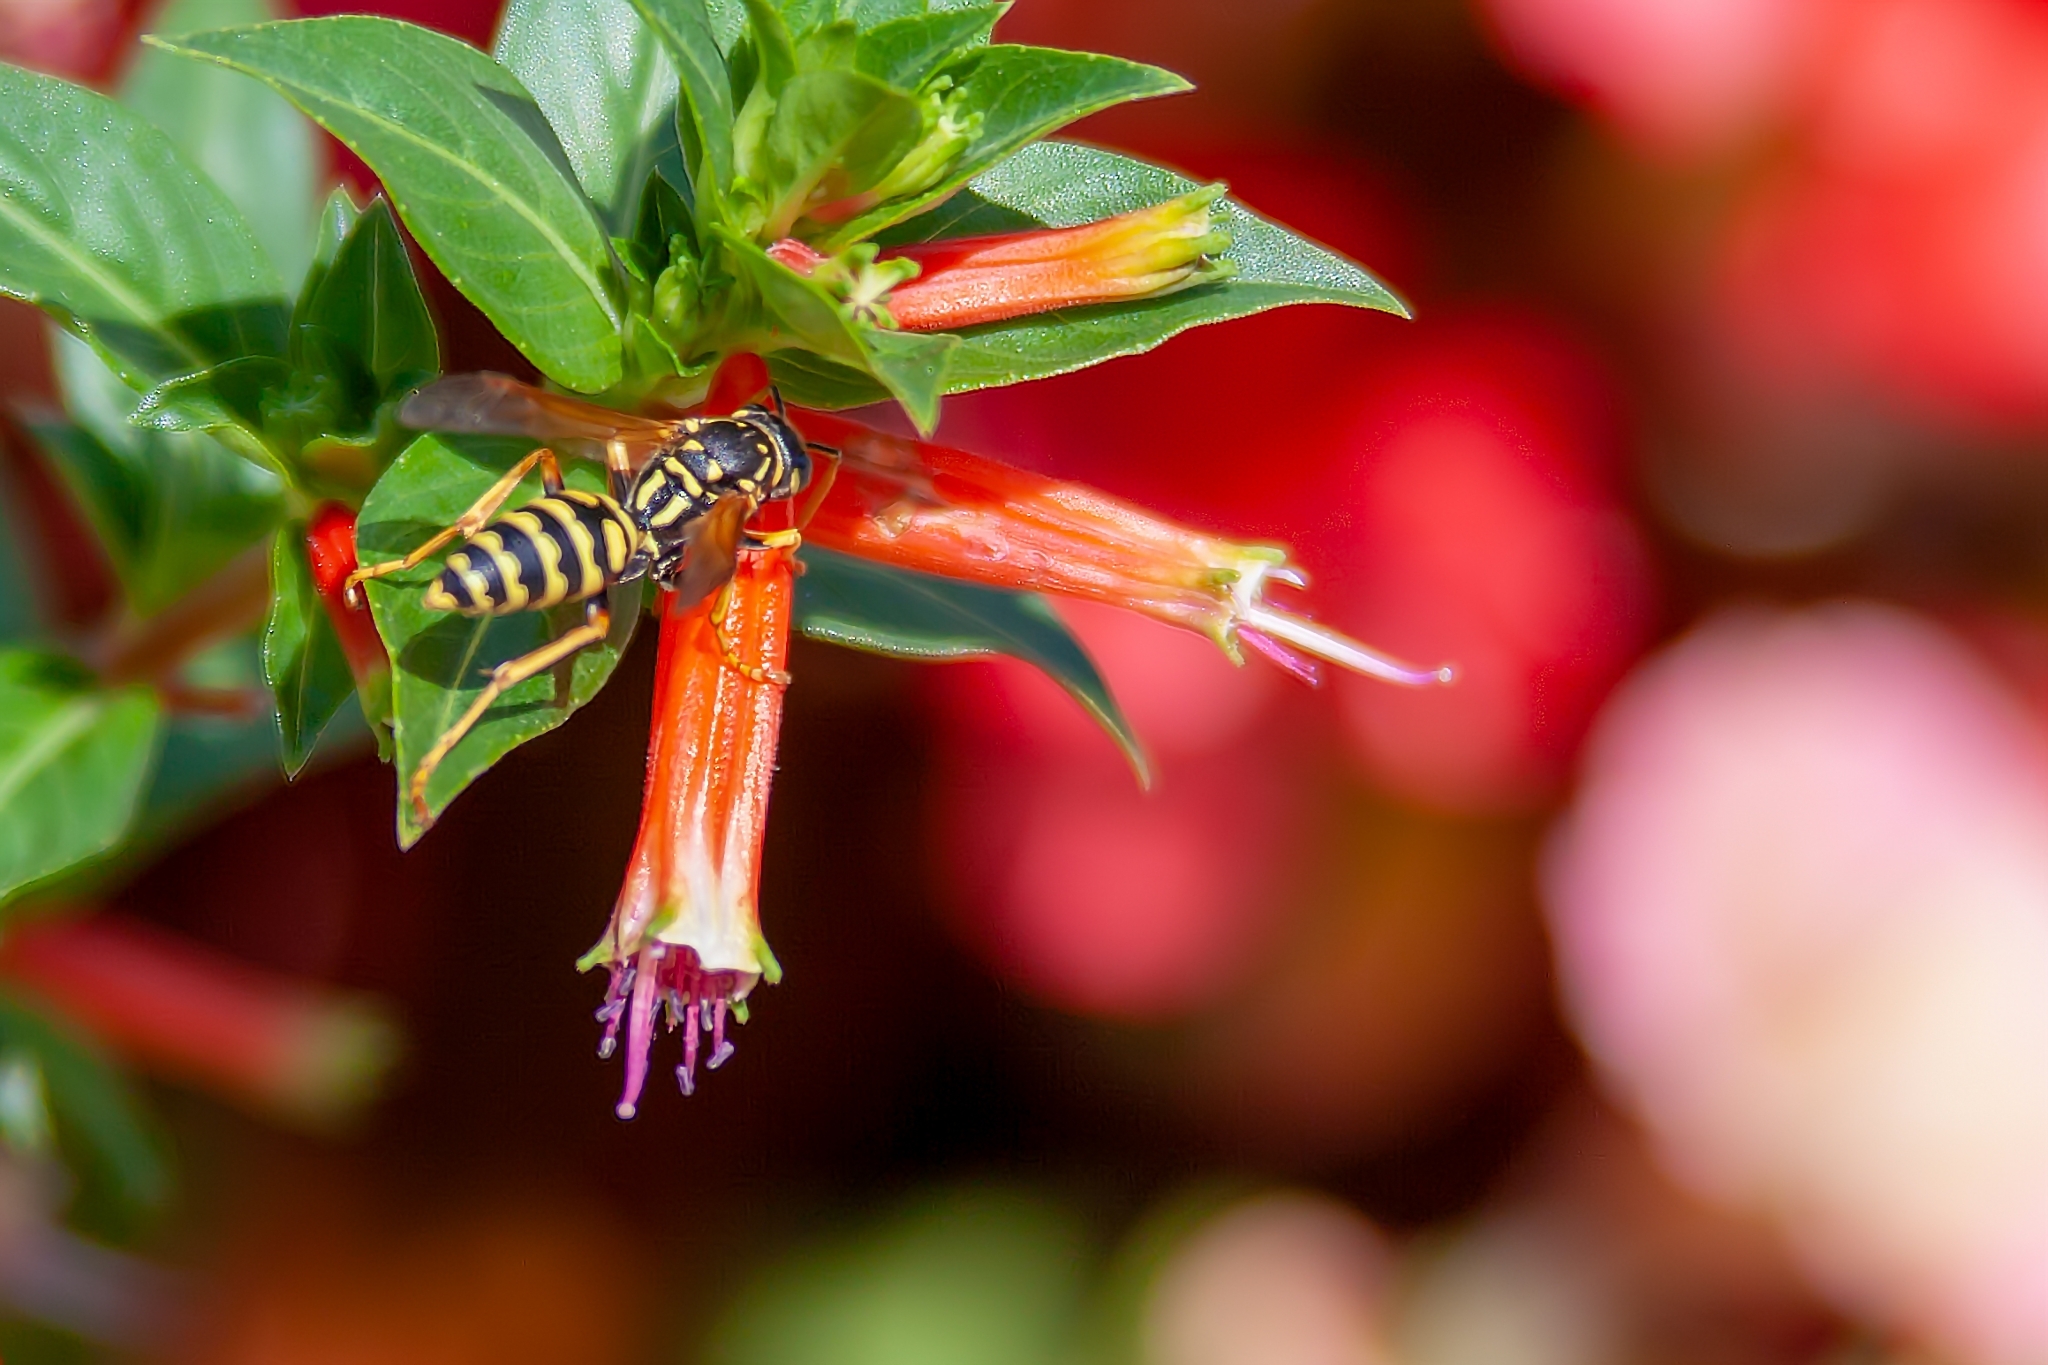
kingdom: Animalia
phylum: Arthropoda
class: Insecta
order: Hymenoptera
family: Eumenidae
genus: Polistes
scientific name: Polistes dominula
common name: Paper wasp
